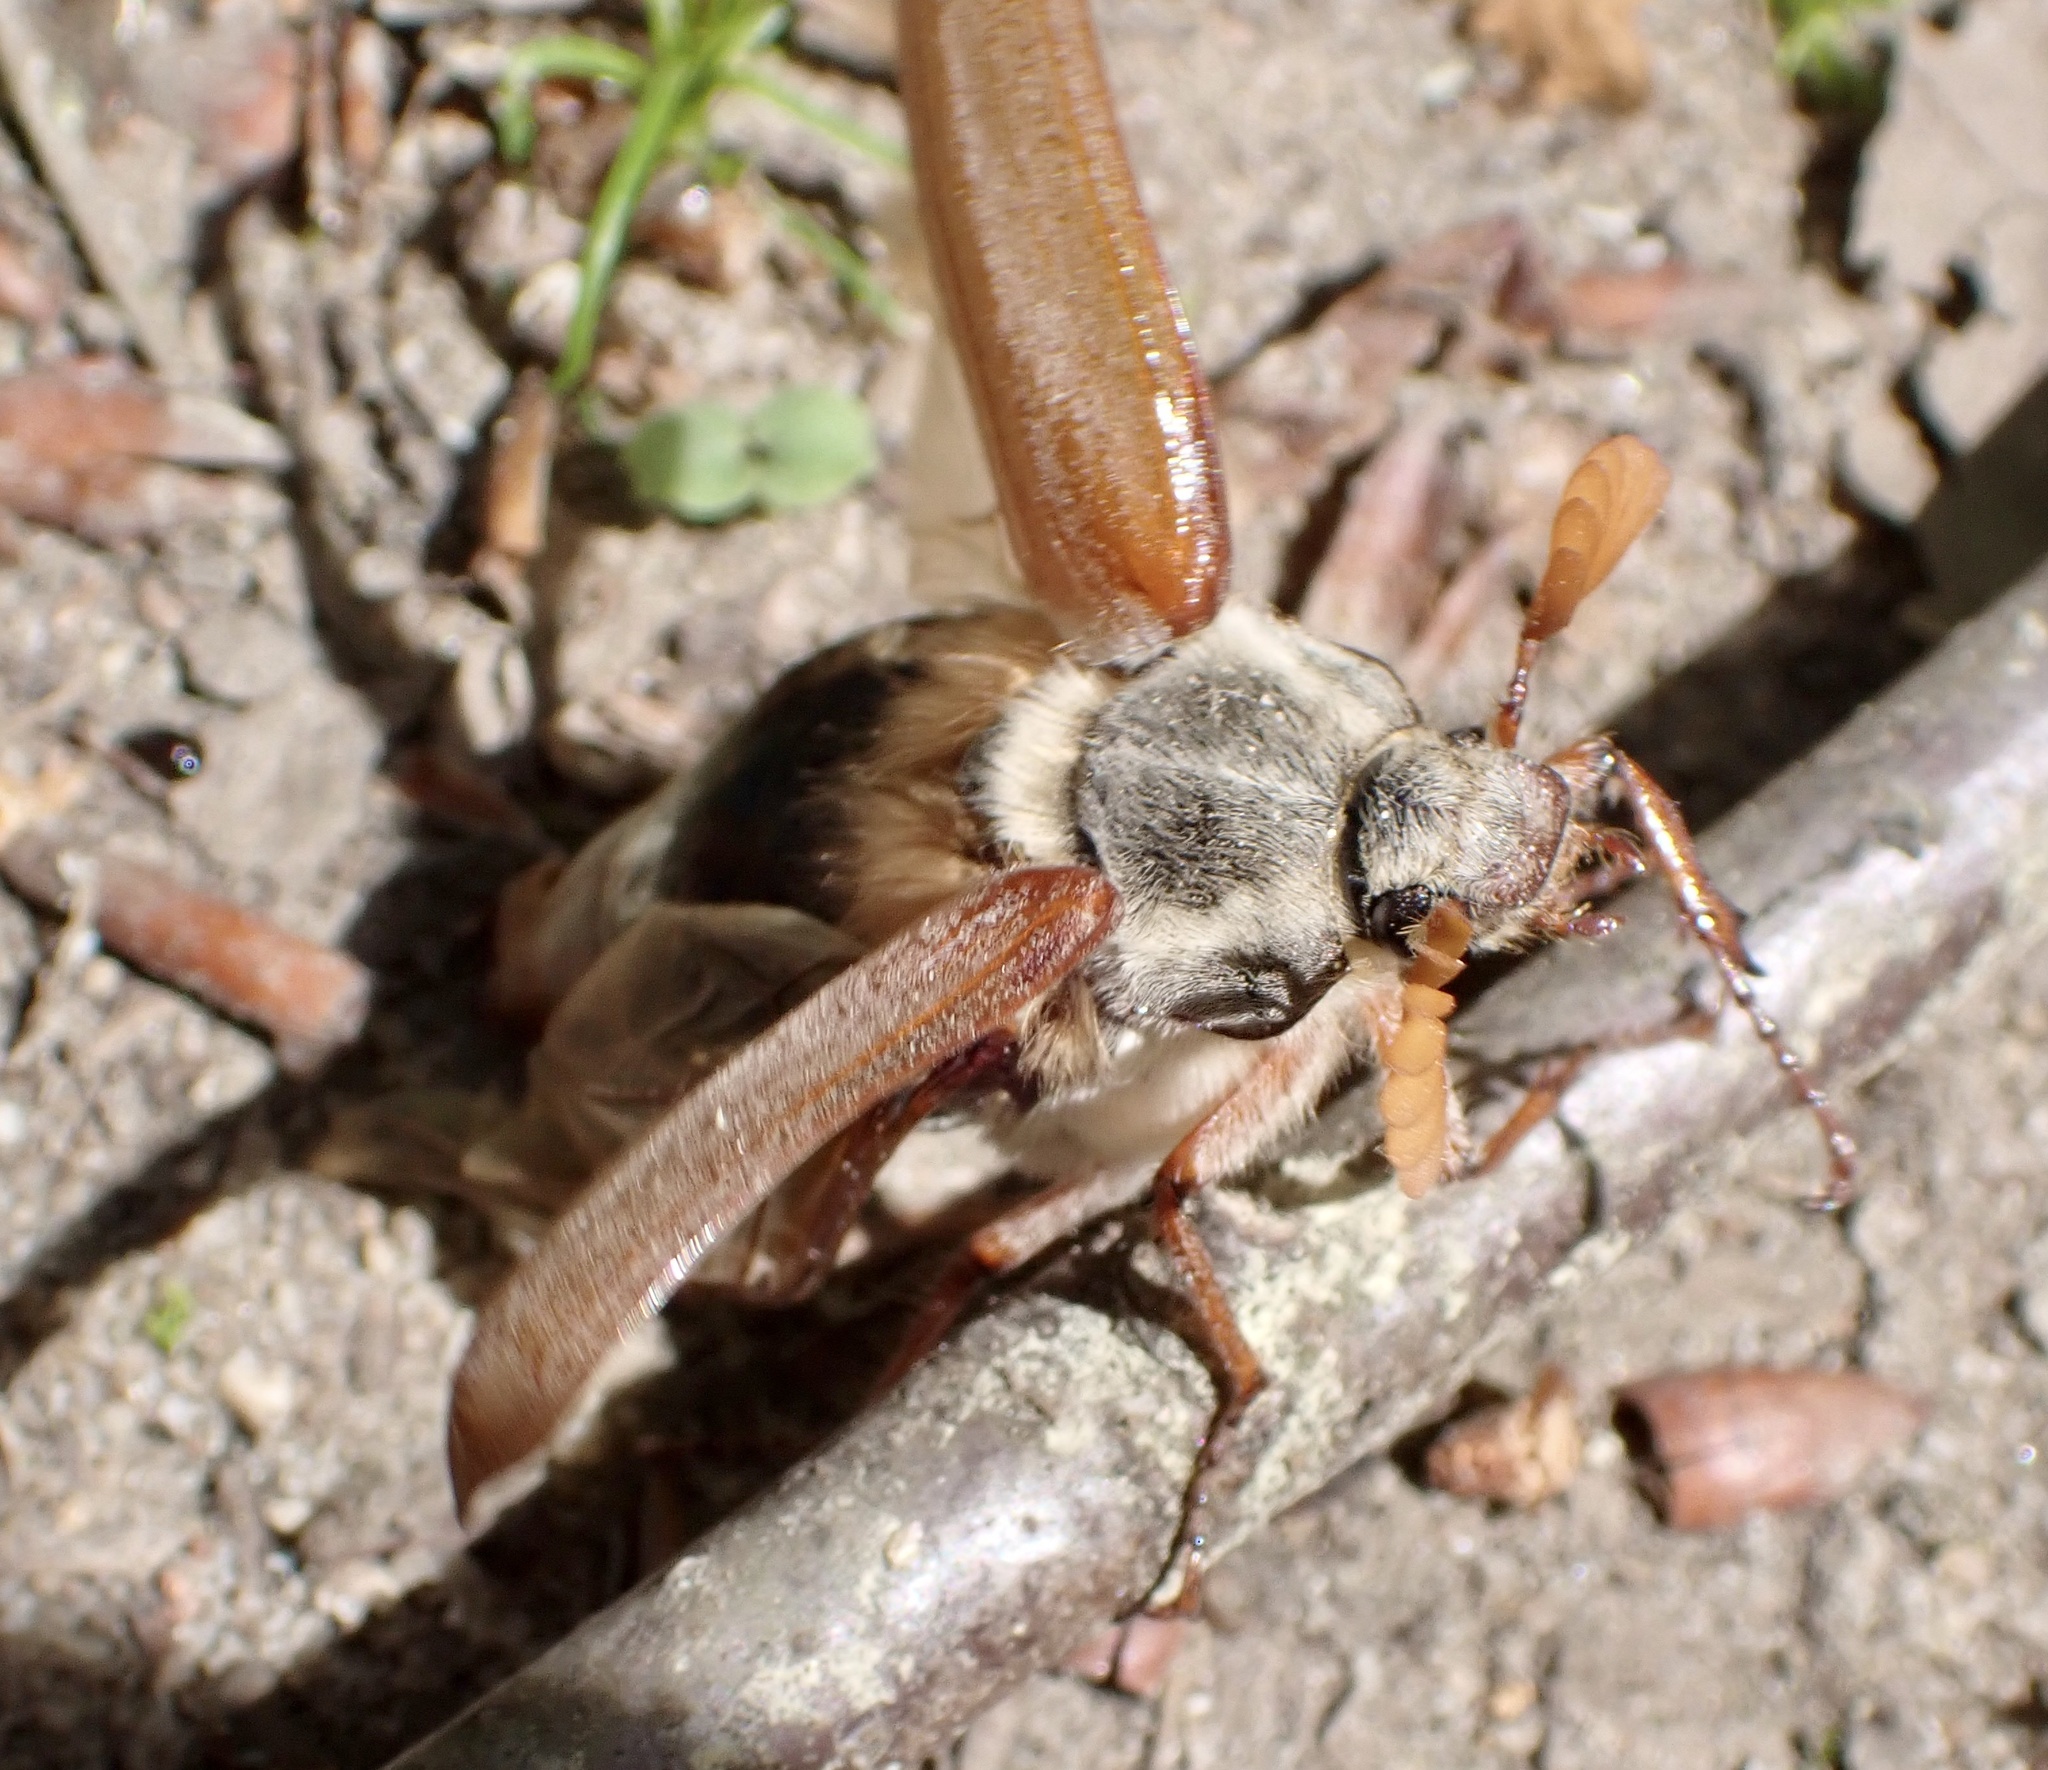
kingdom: Animalia
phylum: Arthropoda
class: Insecta
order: Coleoptera
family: Scarabaeidae
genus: Melolontha
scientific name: Melolontha melolontha
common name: Cockchafer maybeetle
